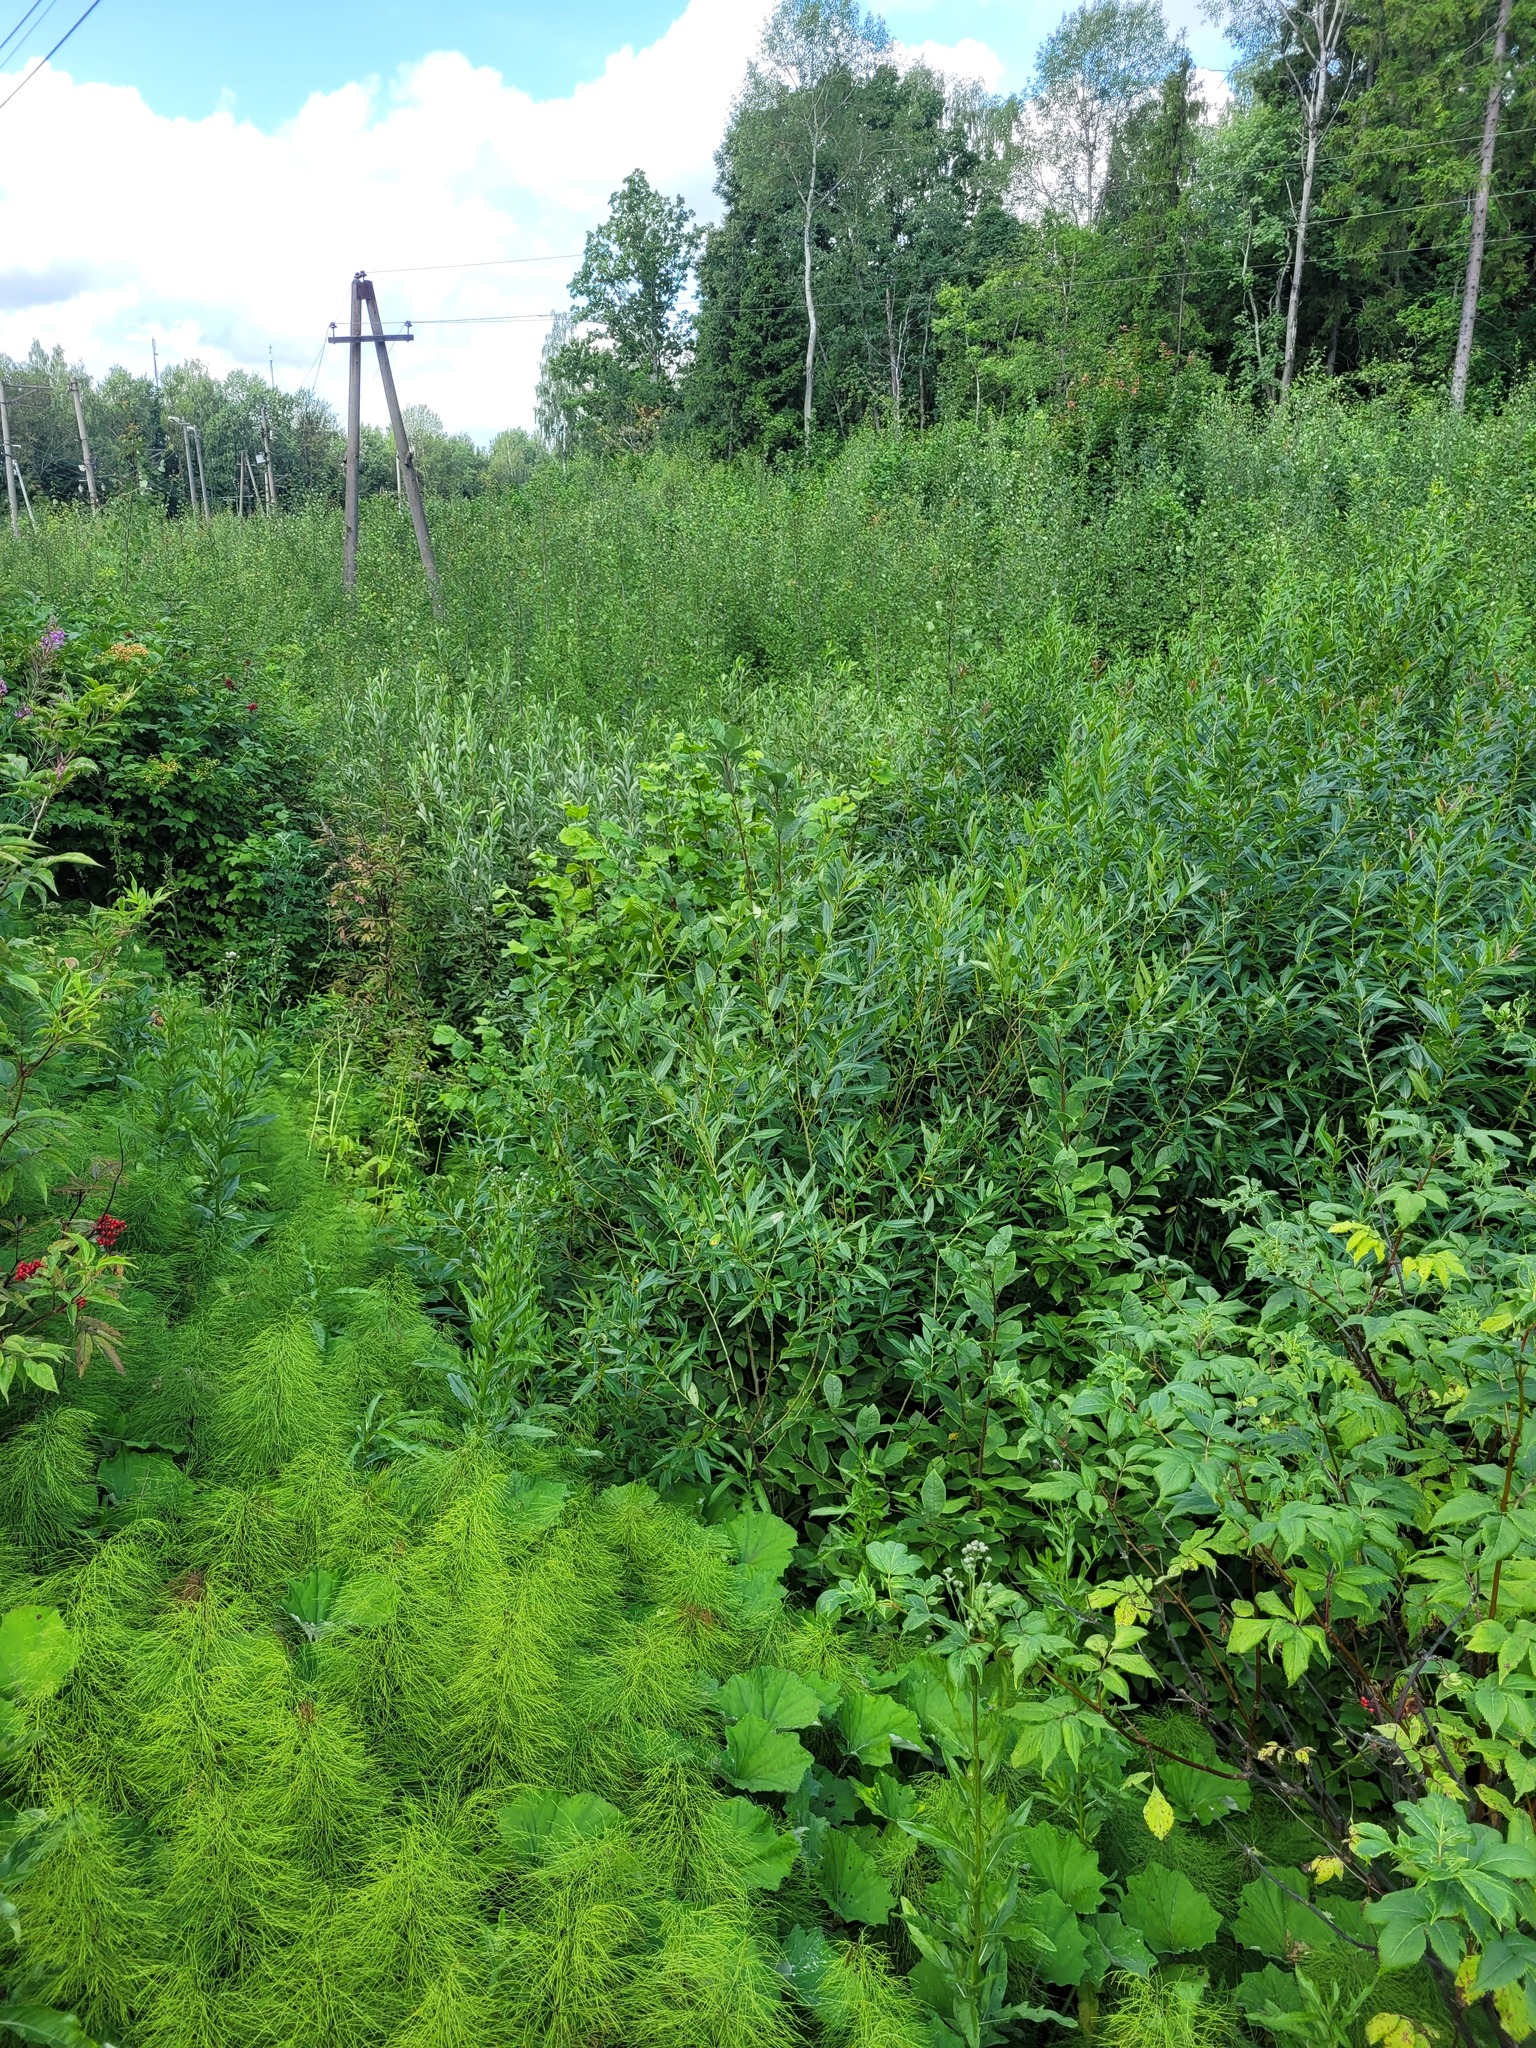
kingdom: Plantae
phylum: Tracheophyta
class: Magnoliopsida
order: Malpighiales
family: Salicaceae
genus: Salix
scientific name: Salix triandra
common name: Almond willow
